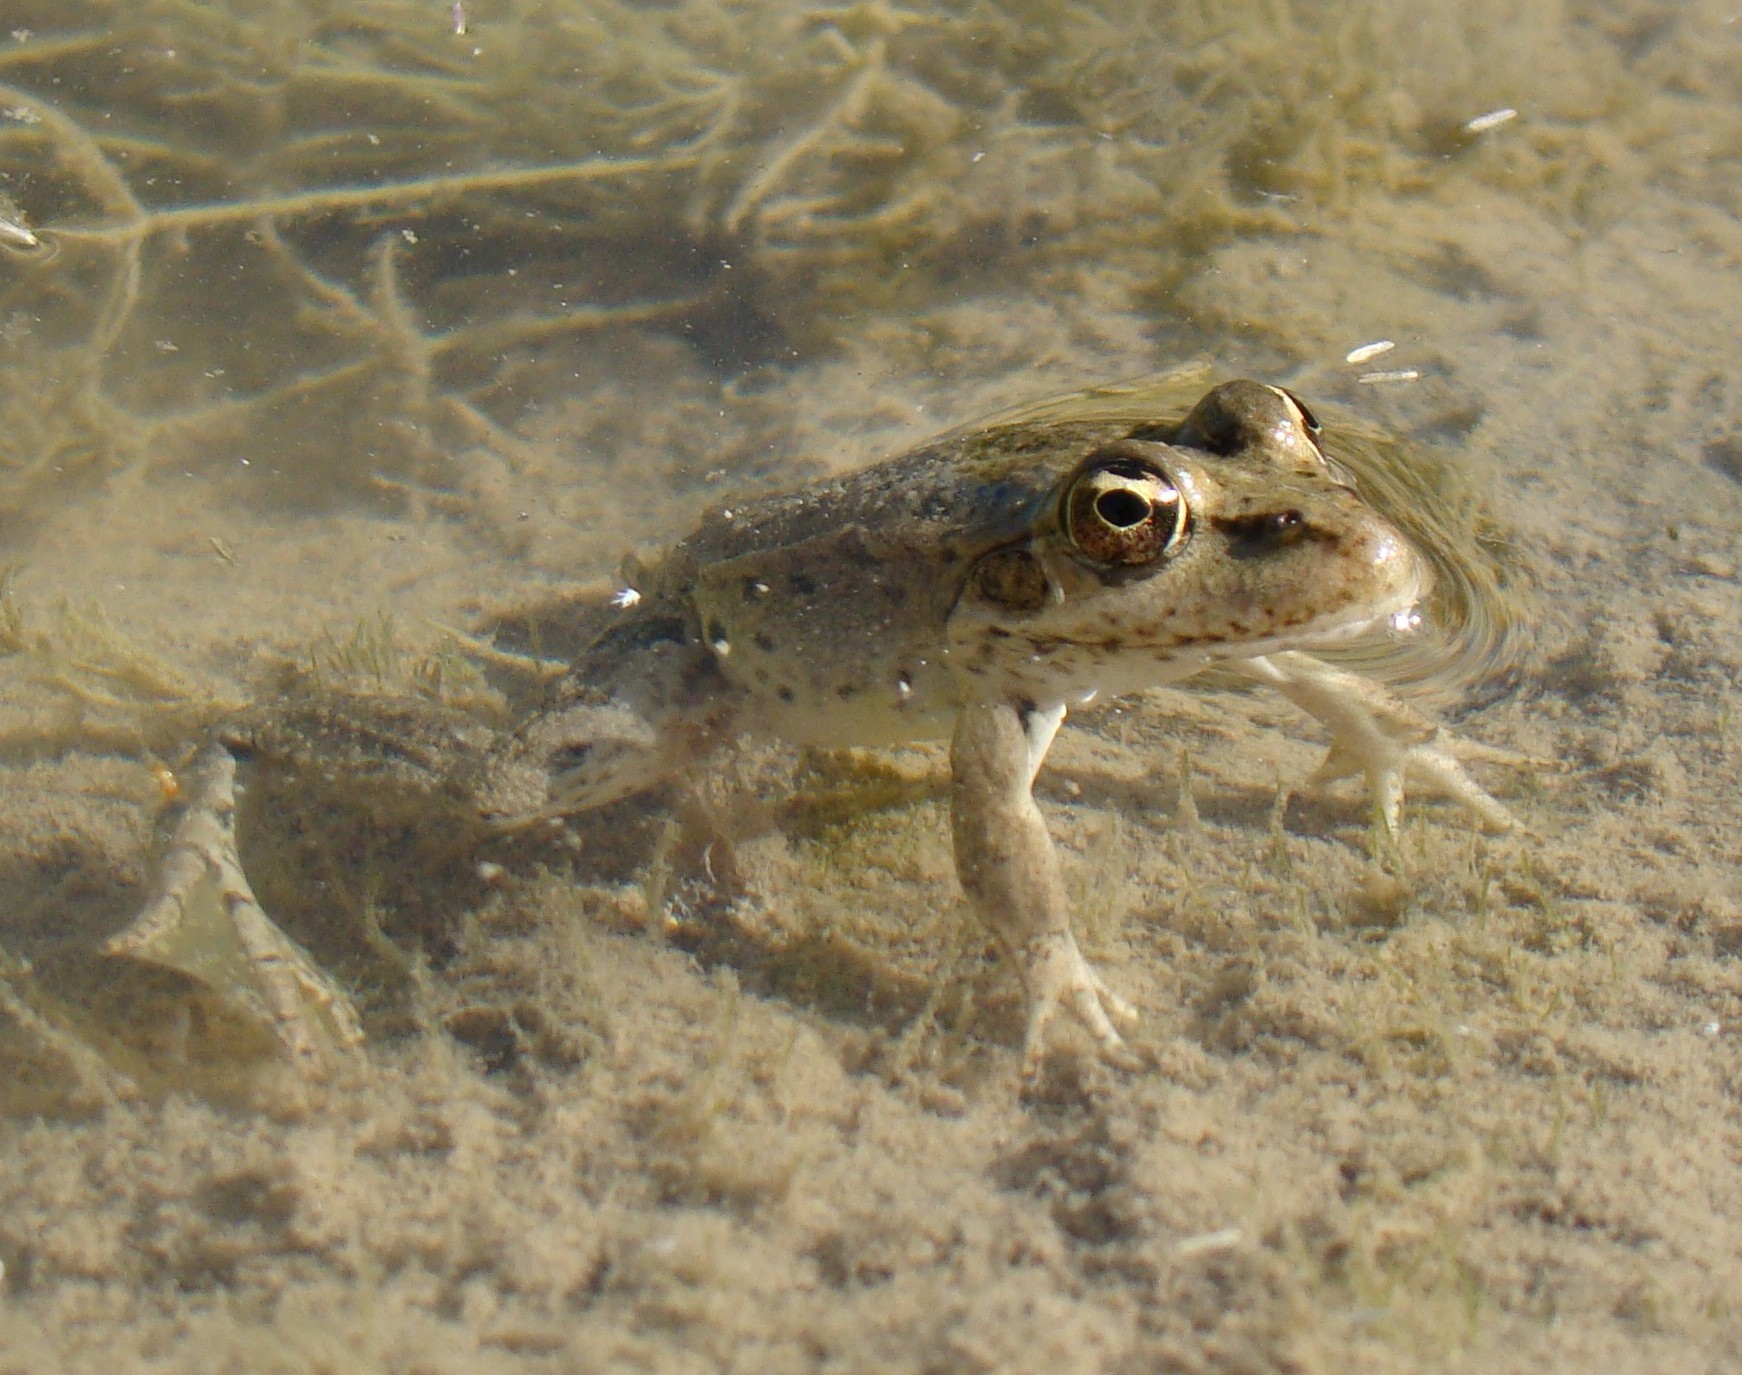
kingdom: Animalia
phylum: Chordata
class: Amphibia
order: Anura
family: Ranidae
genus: Pelophylax
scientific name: Pelophylax ridibundus
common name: Marsh frog
